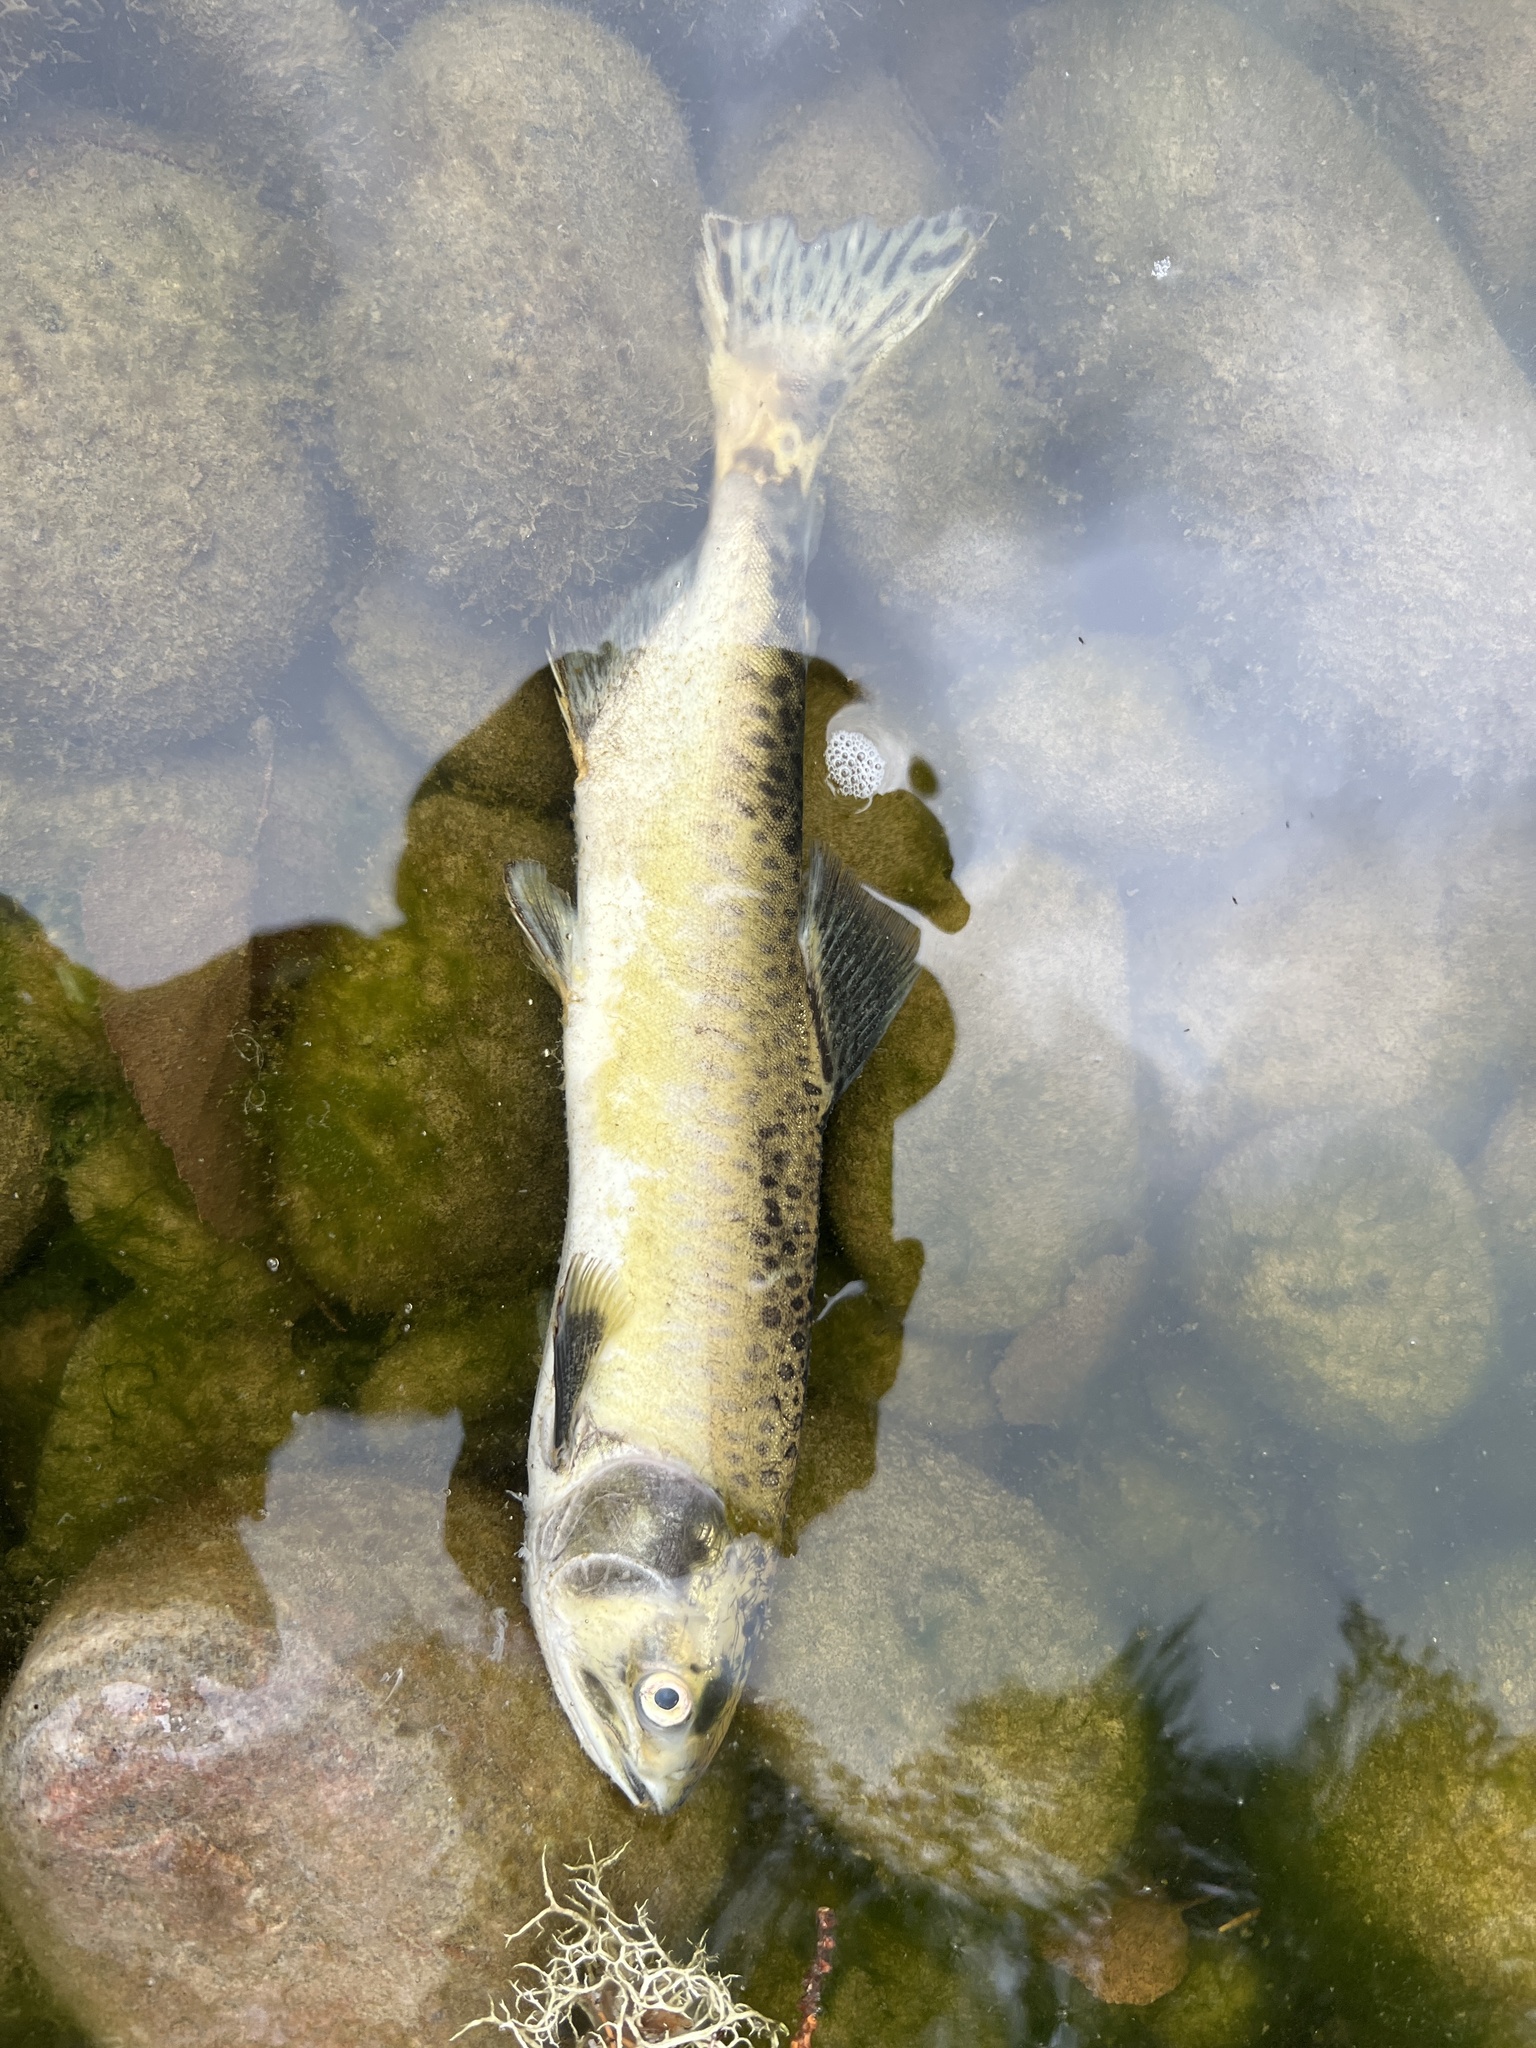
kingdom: Animalia
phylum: Chordata
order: Salmoniformes
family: Salmonidae
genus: Oncorhynchus
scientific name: Oncorhynchus gorbuscha
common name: Humpback salmon
